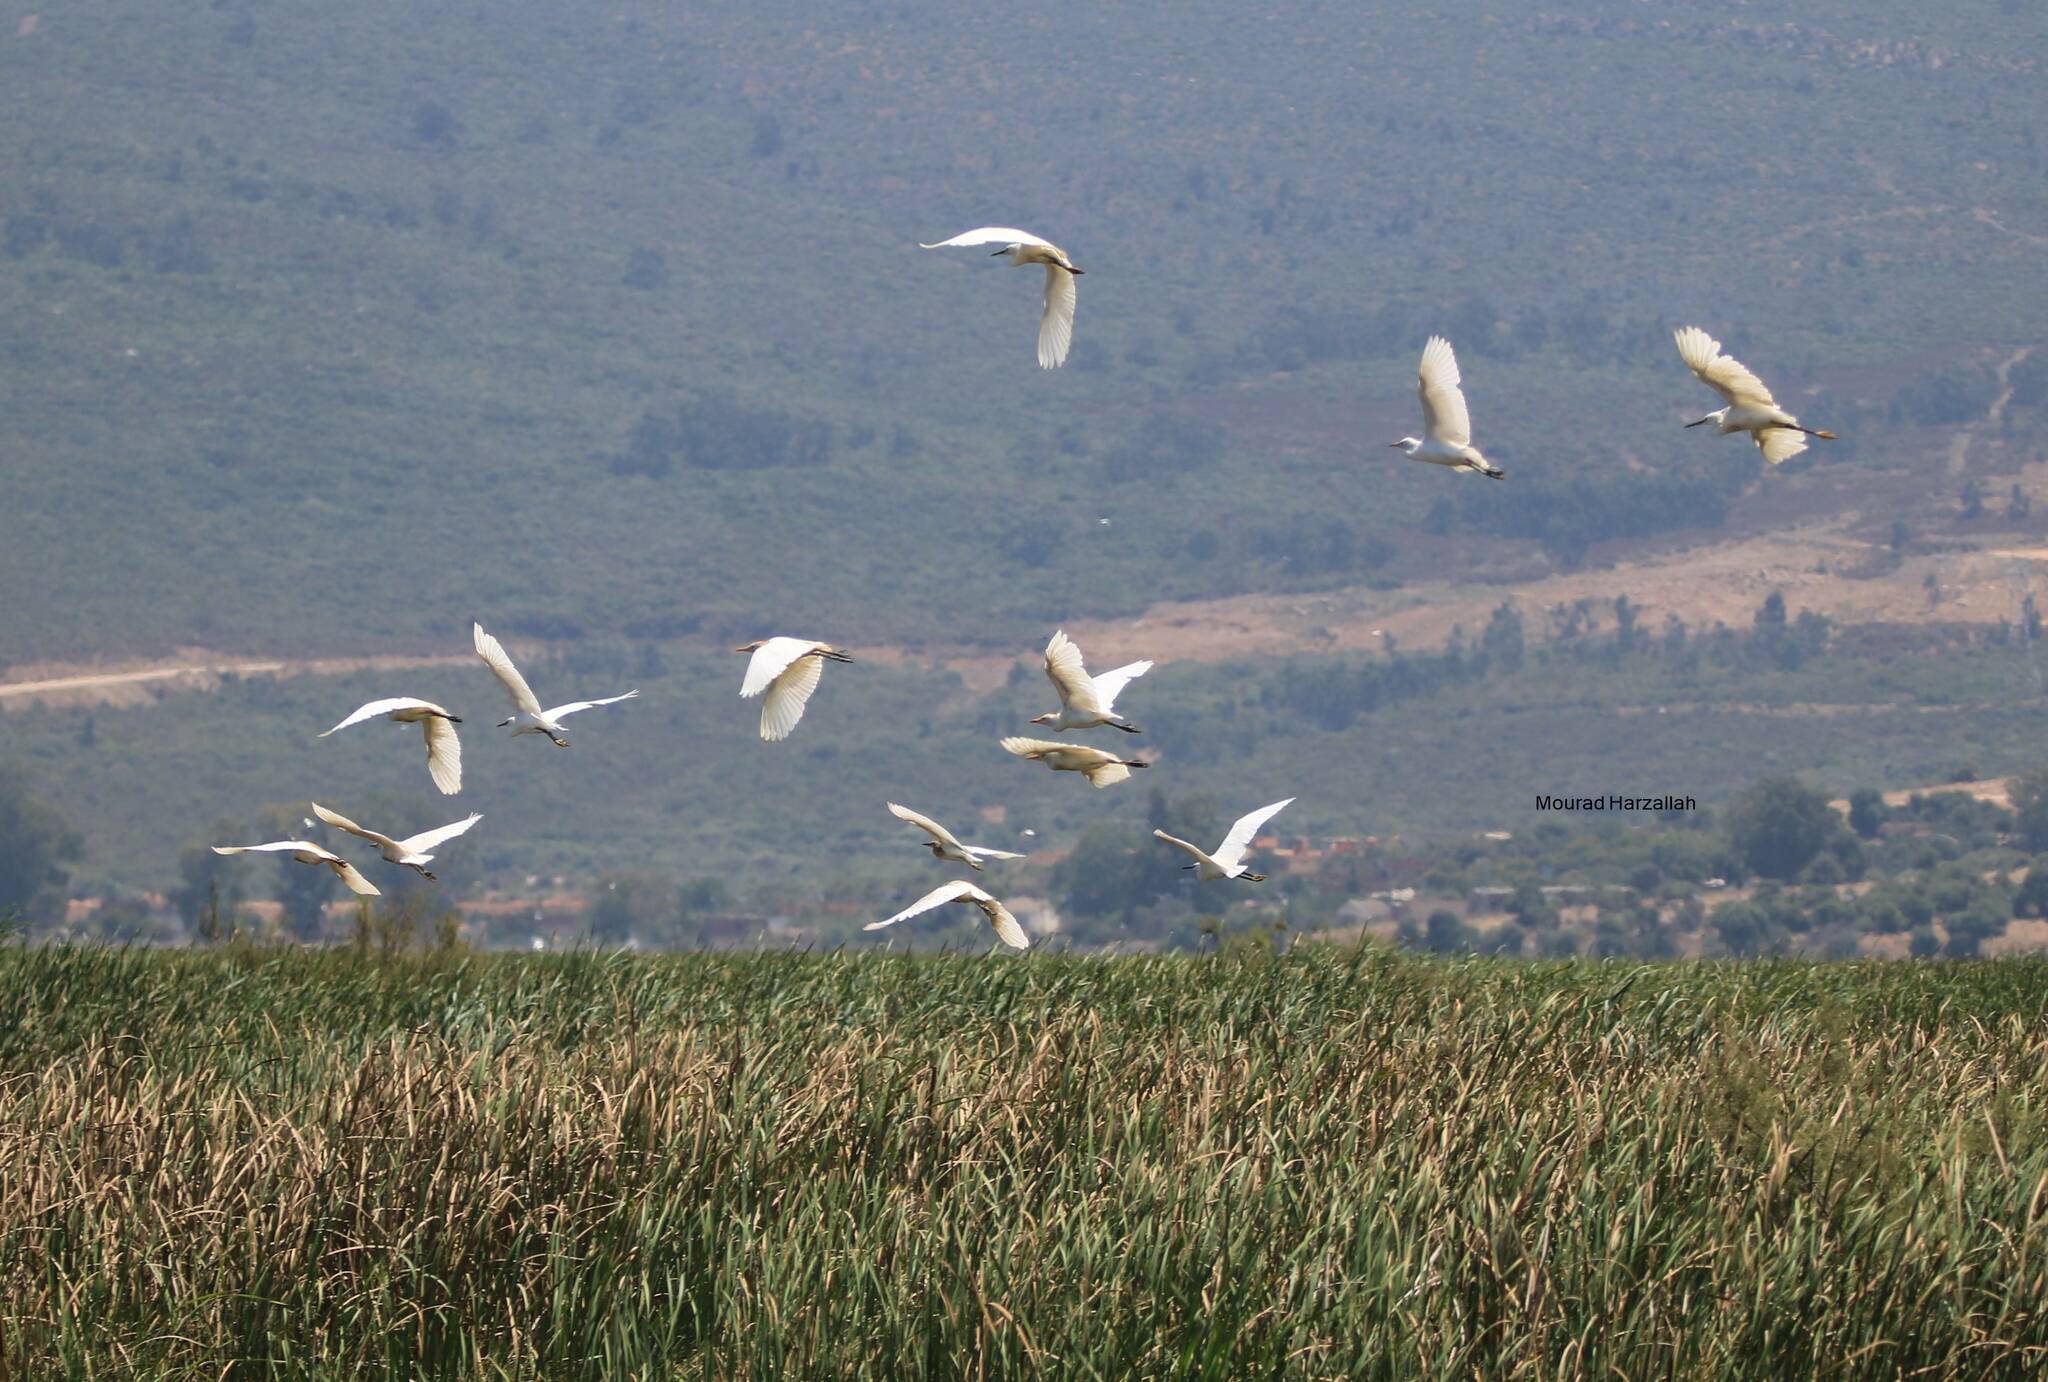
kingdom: Animalia
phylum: Chordata
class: Aves
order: Pelecaniformes
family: Ardeidae
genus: Egretta
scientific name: Egretta garzetta
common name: Little egret
